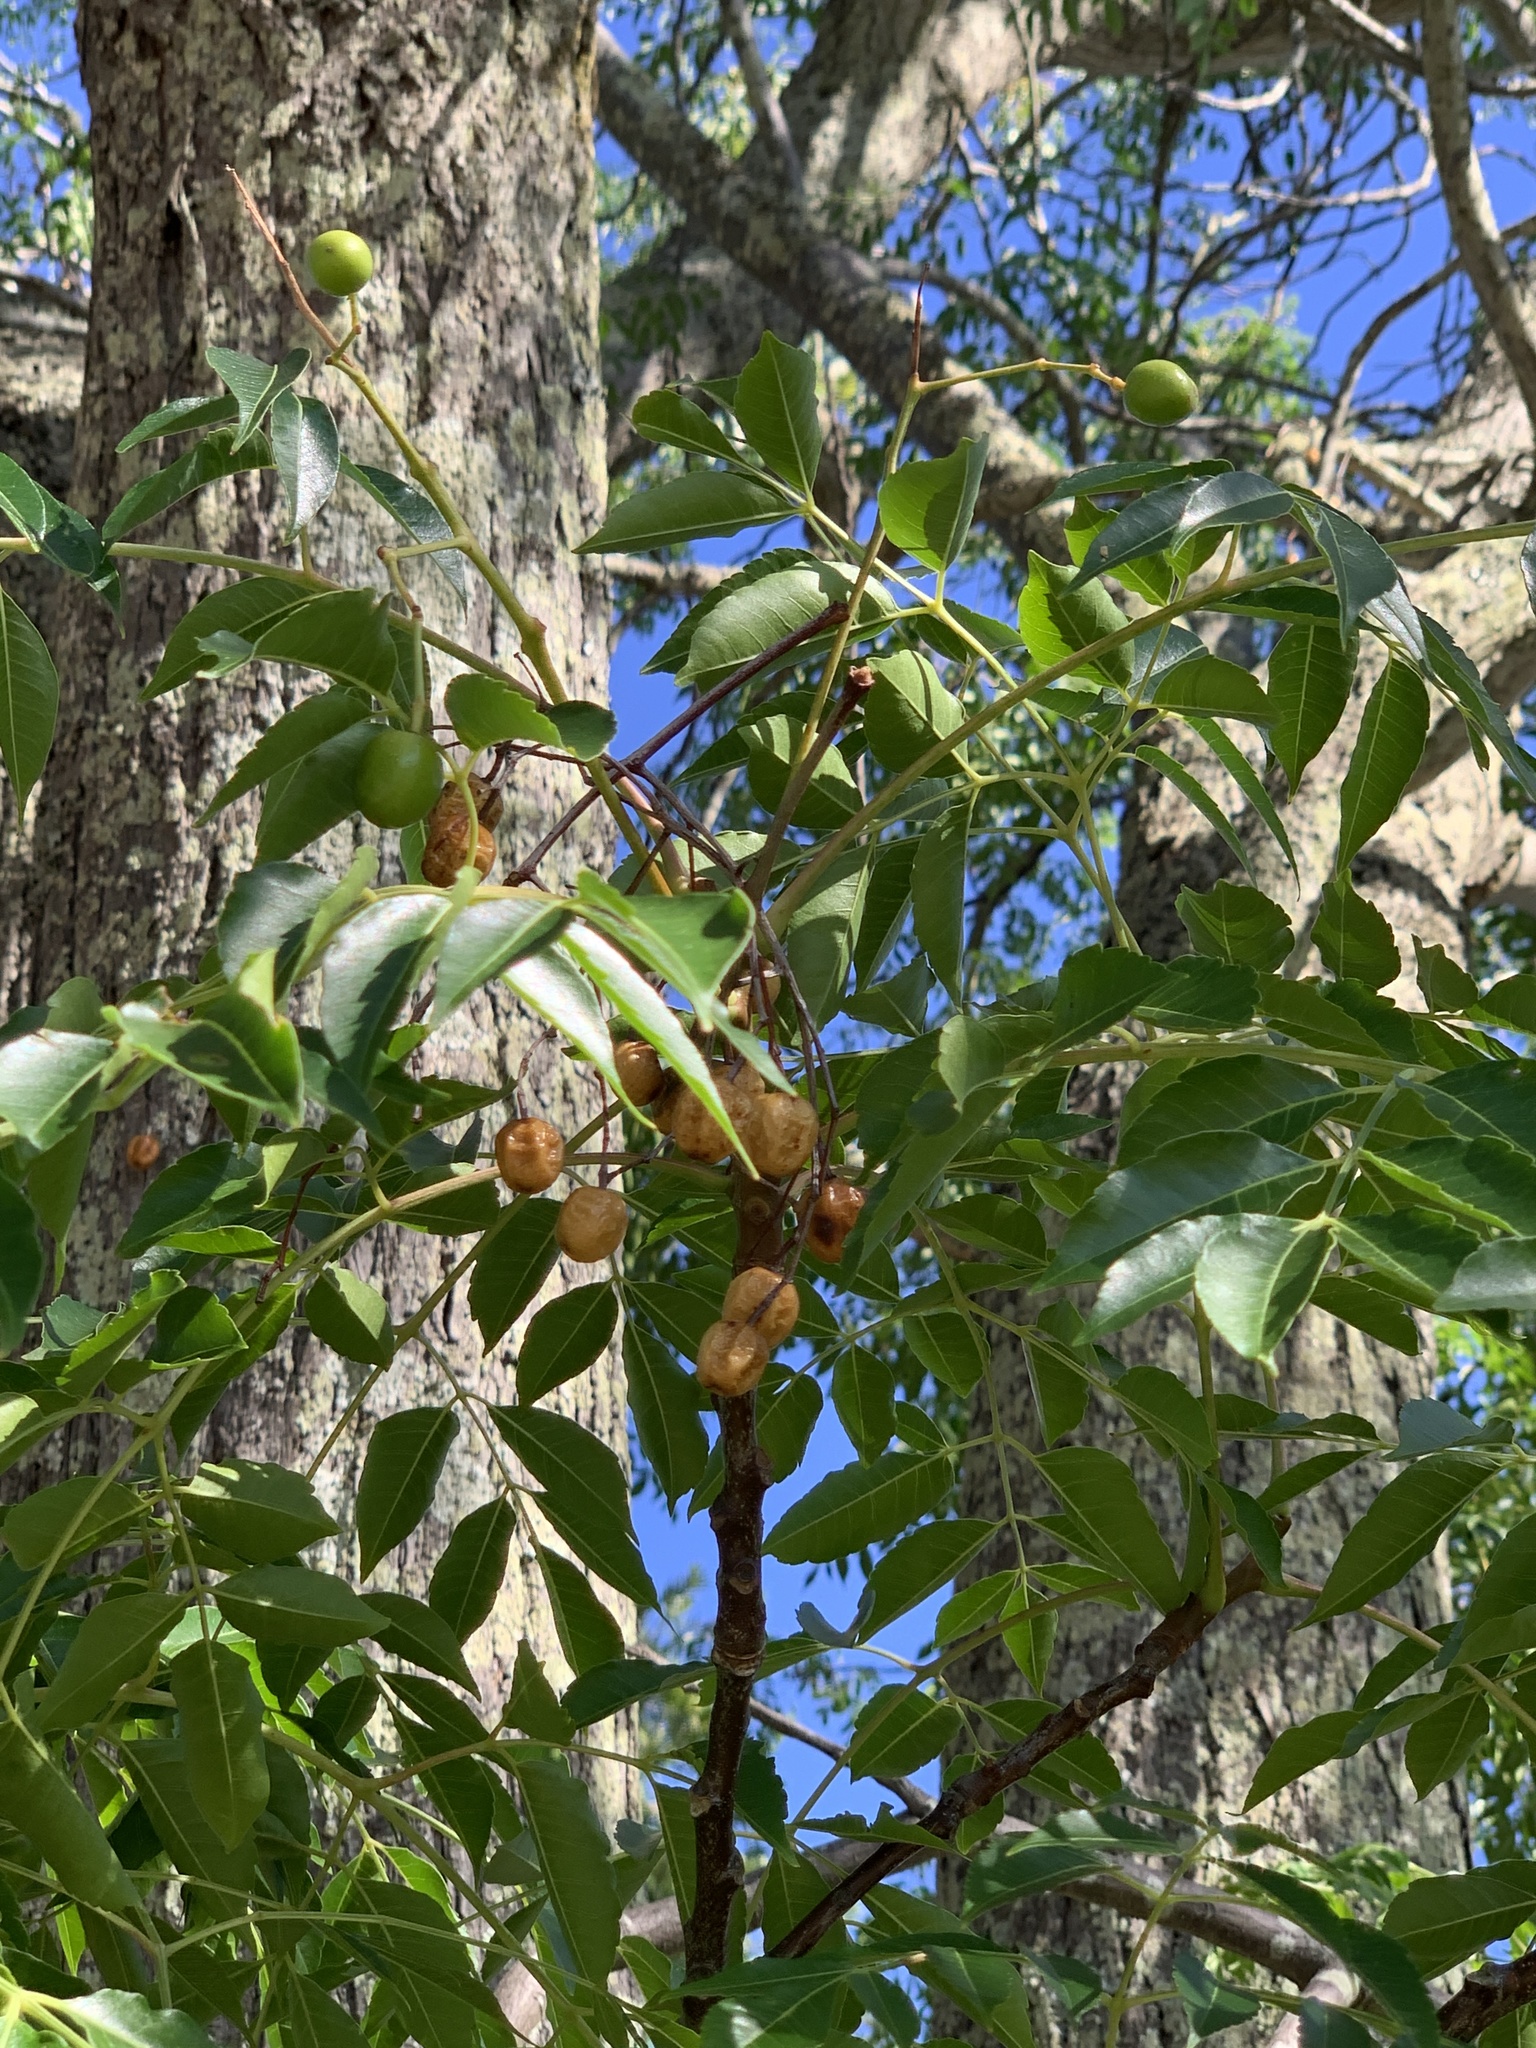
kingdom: Plantae
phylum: Tracheophyta
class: Magnoliopsida
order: Sapindales
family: Meliaceae
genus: Melia
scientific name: Melia azedarach
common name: Chinaberrytree
